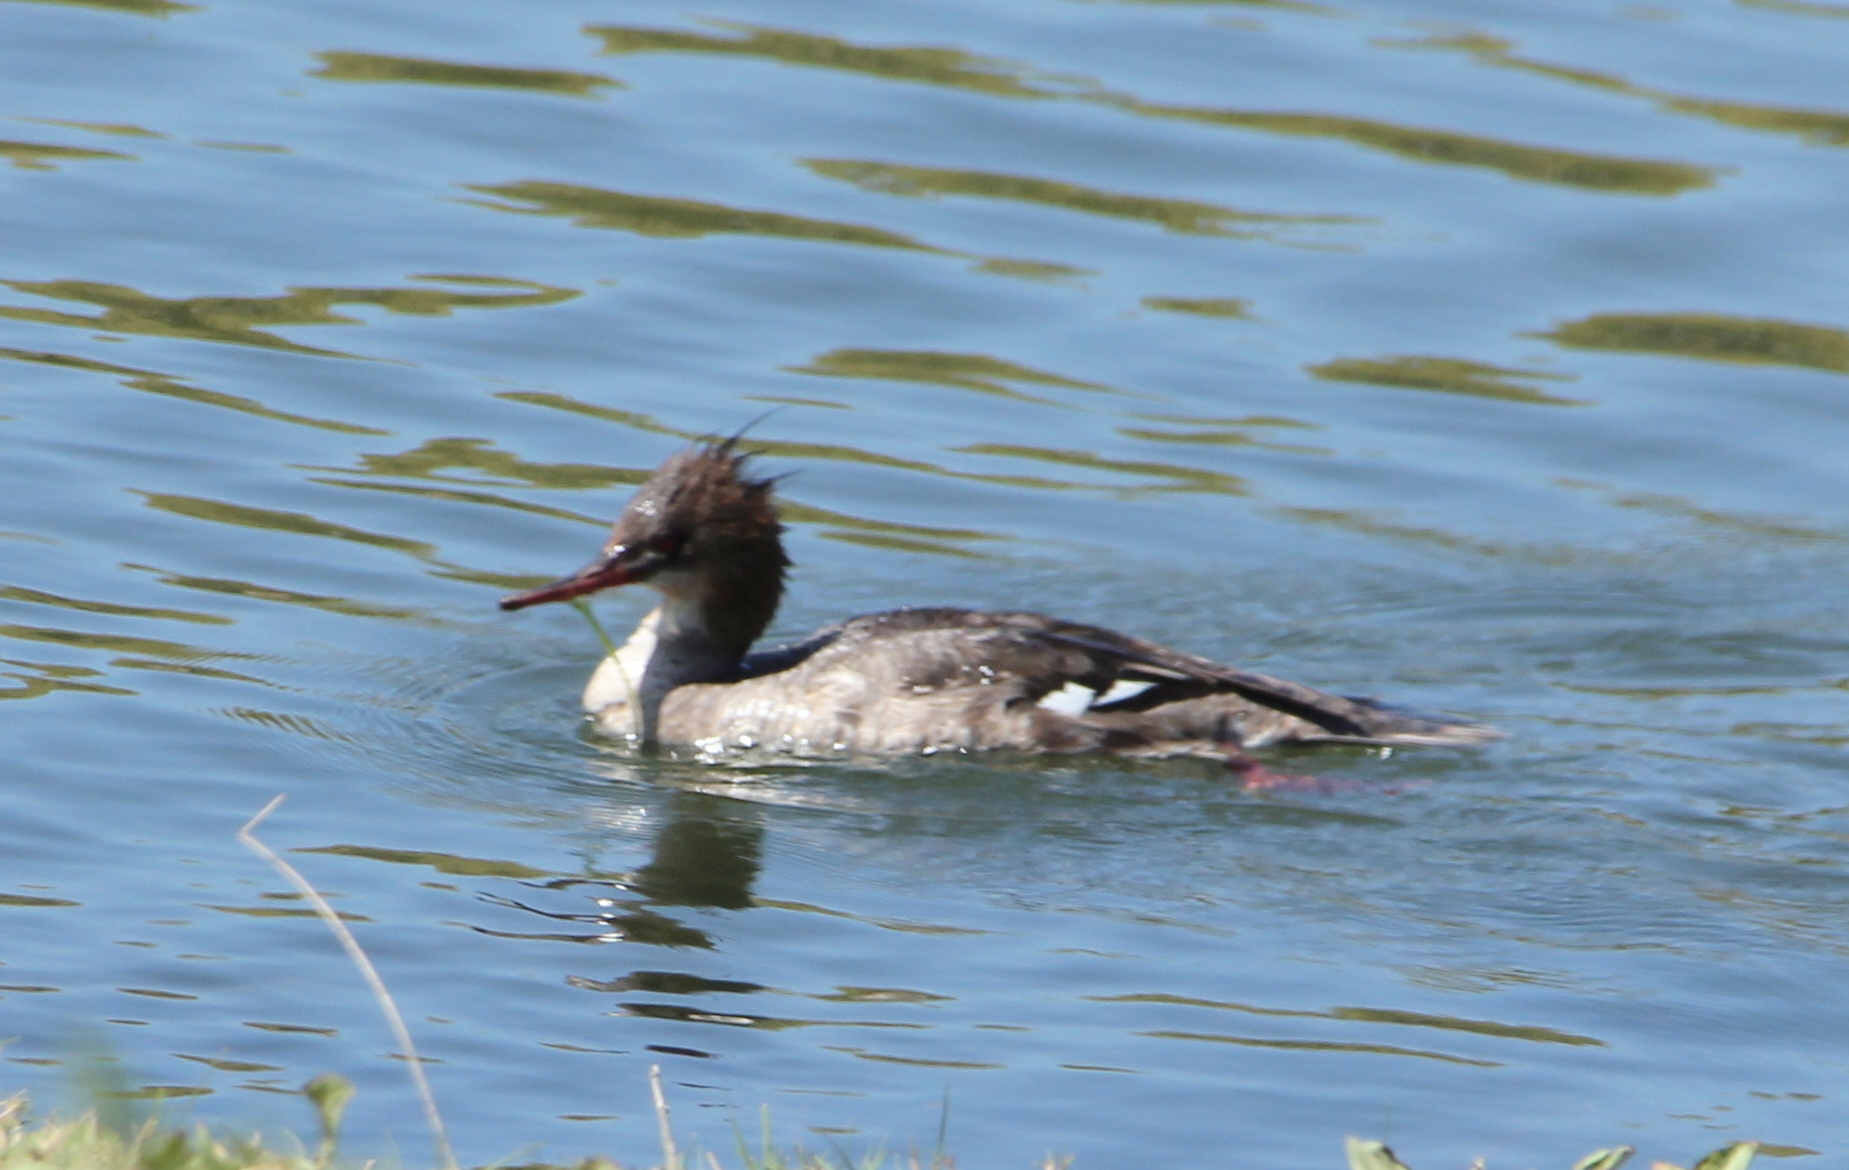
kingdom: Animalia
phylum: Chordata
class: Aves
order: Anseriformes
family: Anatidae
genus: Mergus
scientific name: Mergus serrator
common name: Red-breasted merganser
